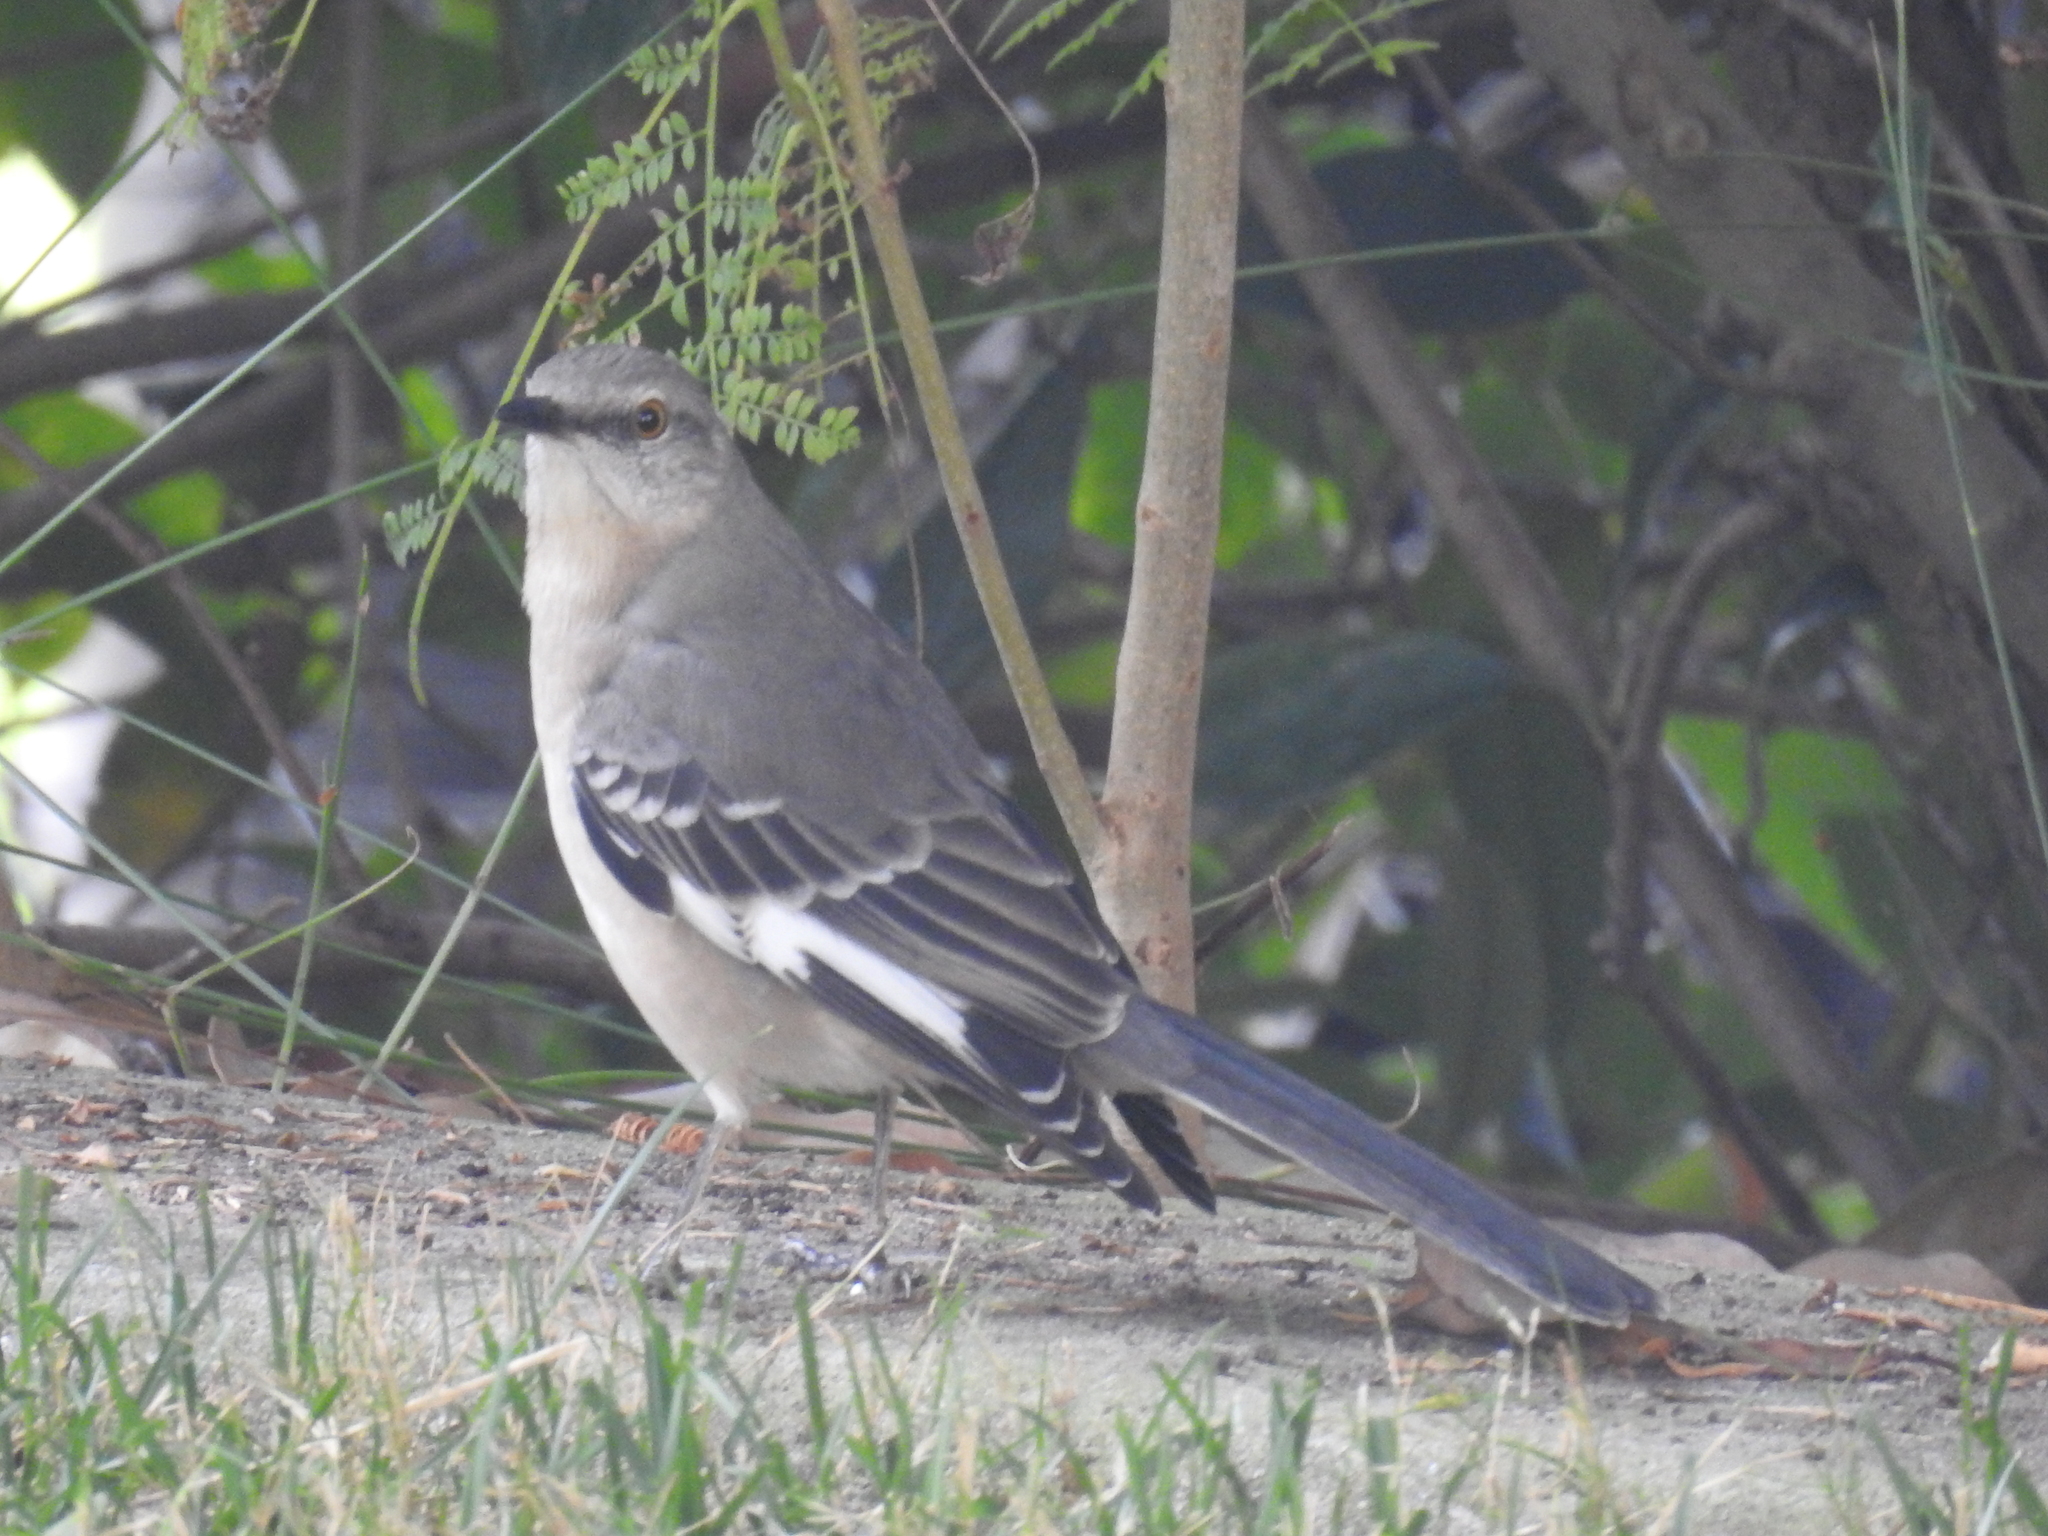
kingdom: Animalia
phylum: Chordata
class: Aves
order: Passeriformes
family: Mimidae
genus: Mimus
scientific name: Mimus polyglottos
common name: Northern mockingbird
